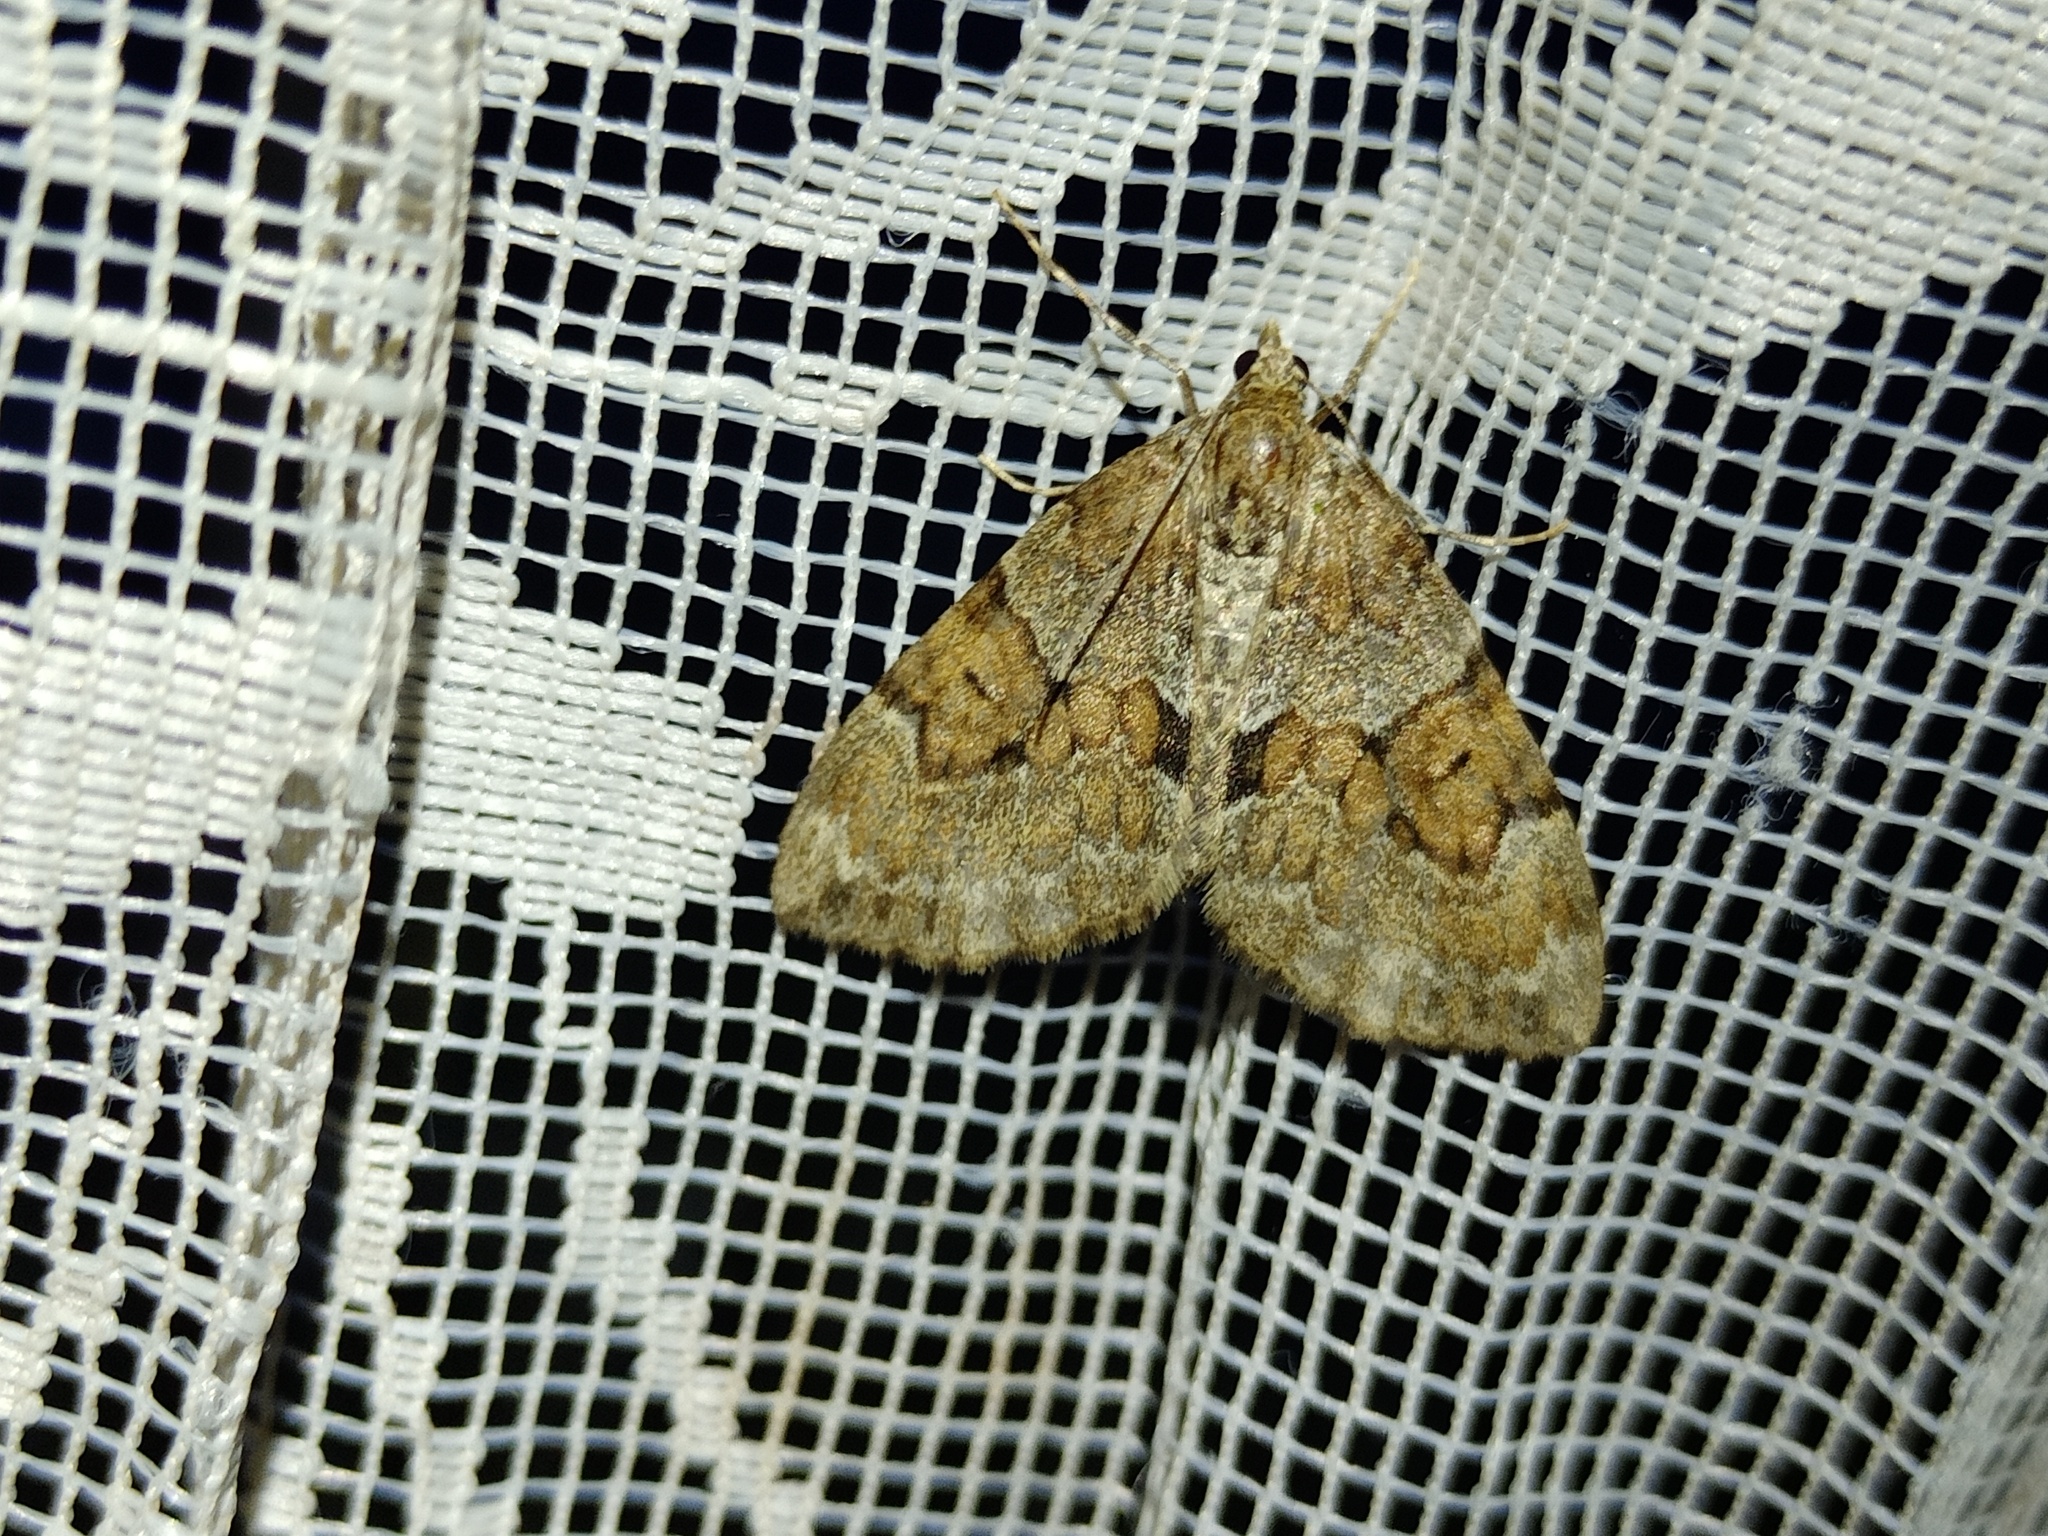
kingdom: Animalia
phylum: Arthropoda
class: Insecta
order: Lepidoptera
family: Geometridae
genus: Thera
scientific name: Thera obeliscata
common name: Grey pine carpet
